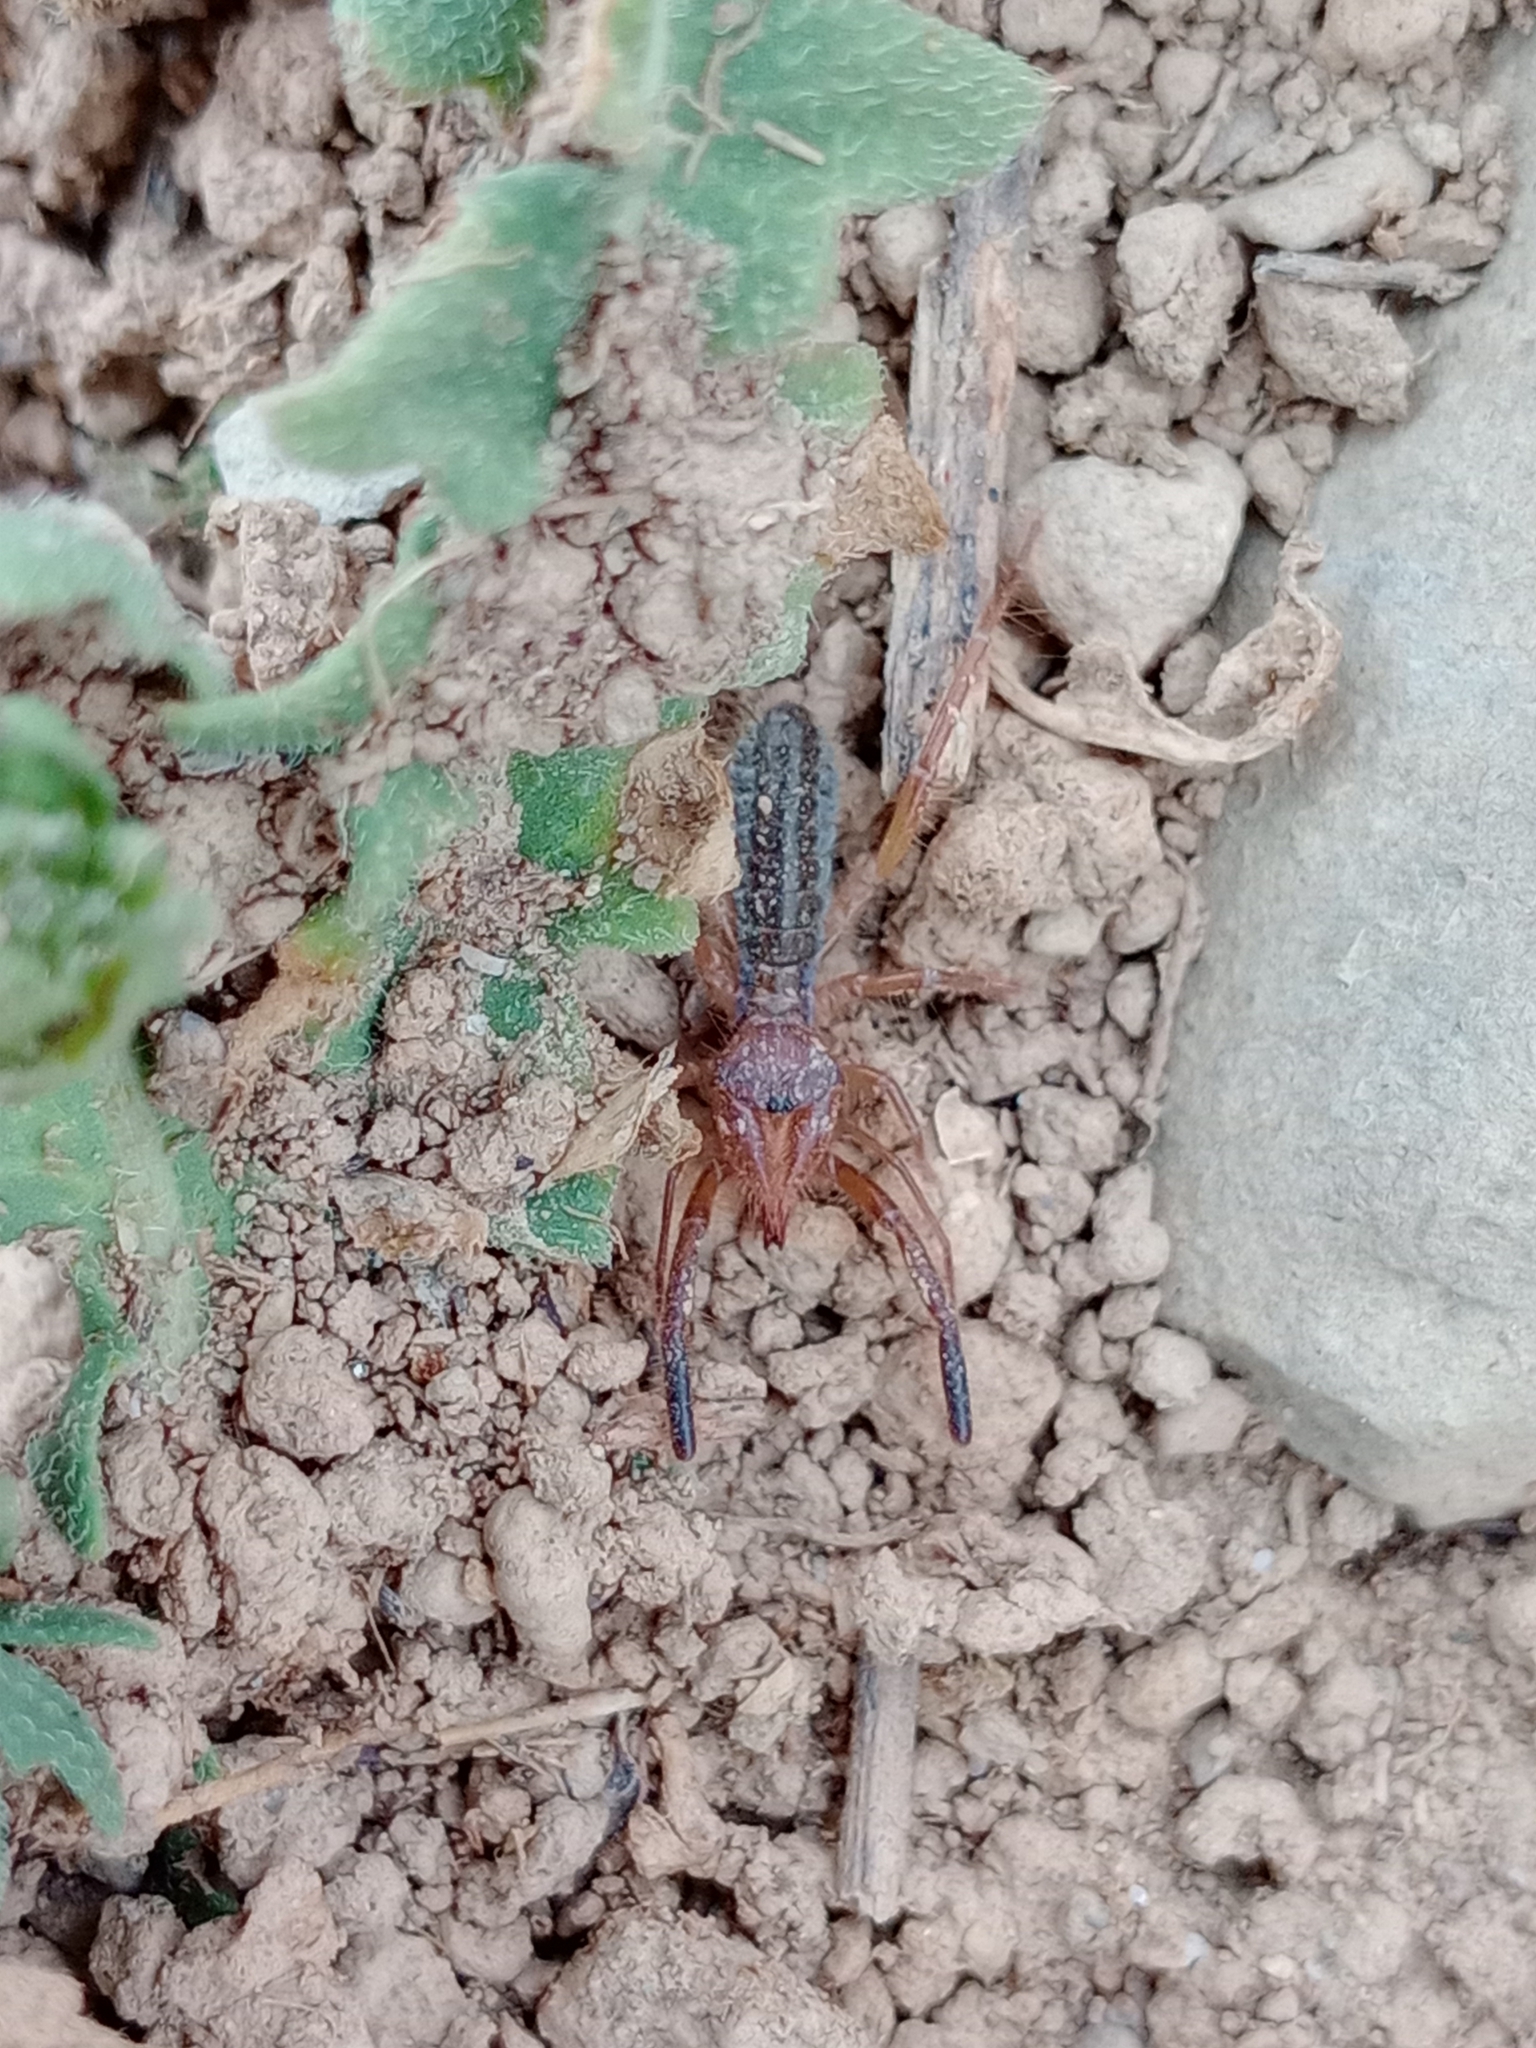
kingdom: Animalia
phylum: Arthropoda
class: Arachnida
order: Solifugae
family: Daesiidae
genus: Gluvia
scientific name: Gluvia dorsalis
